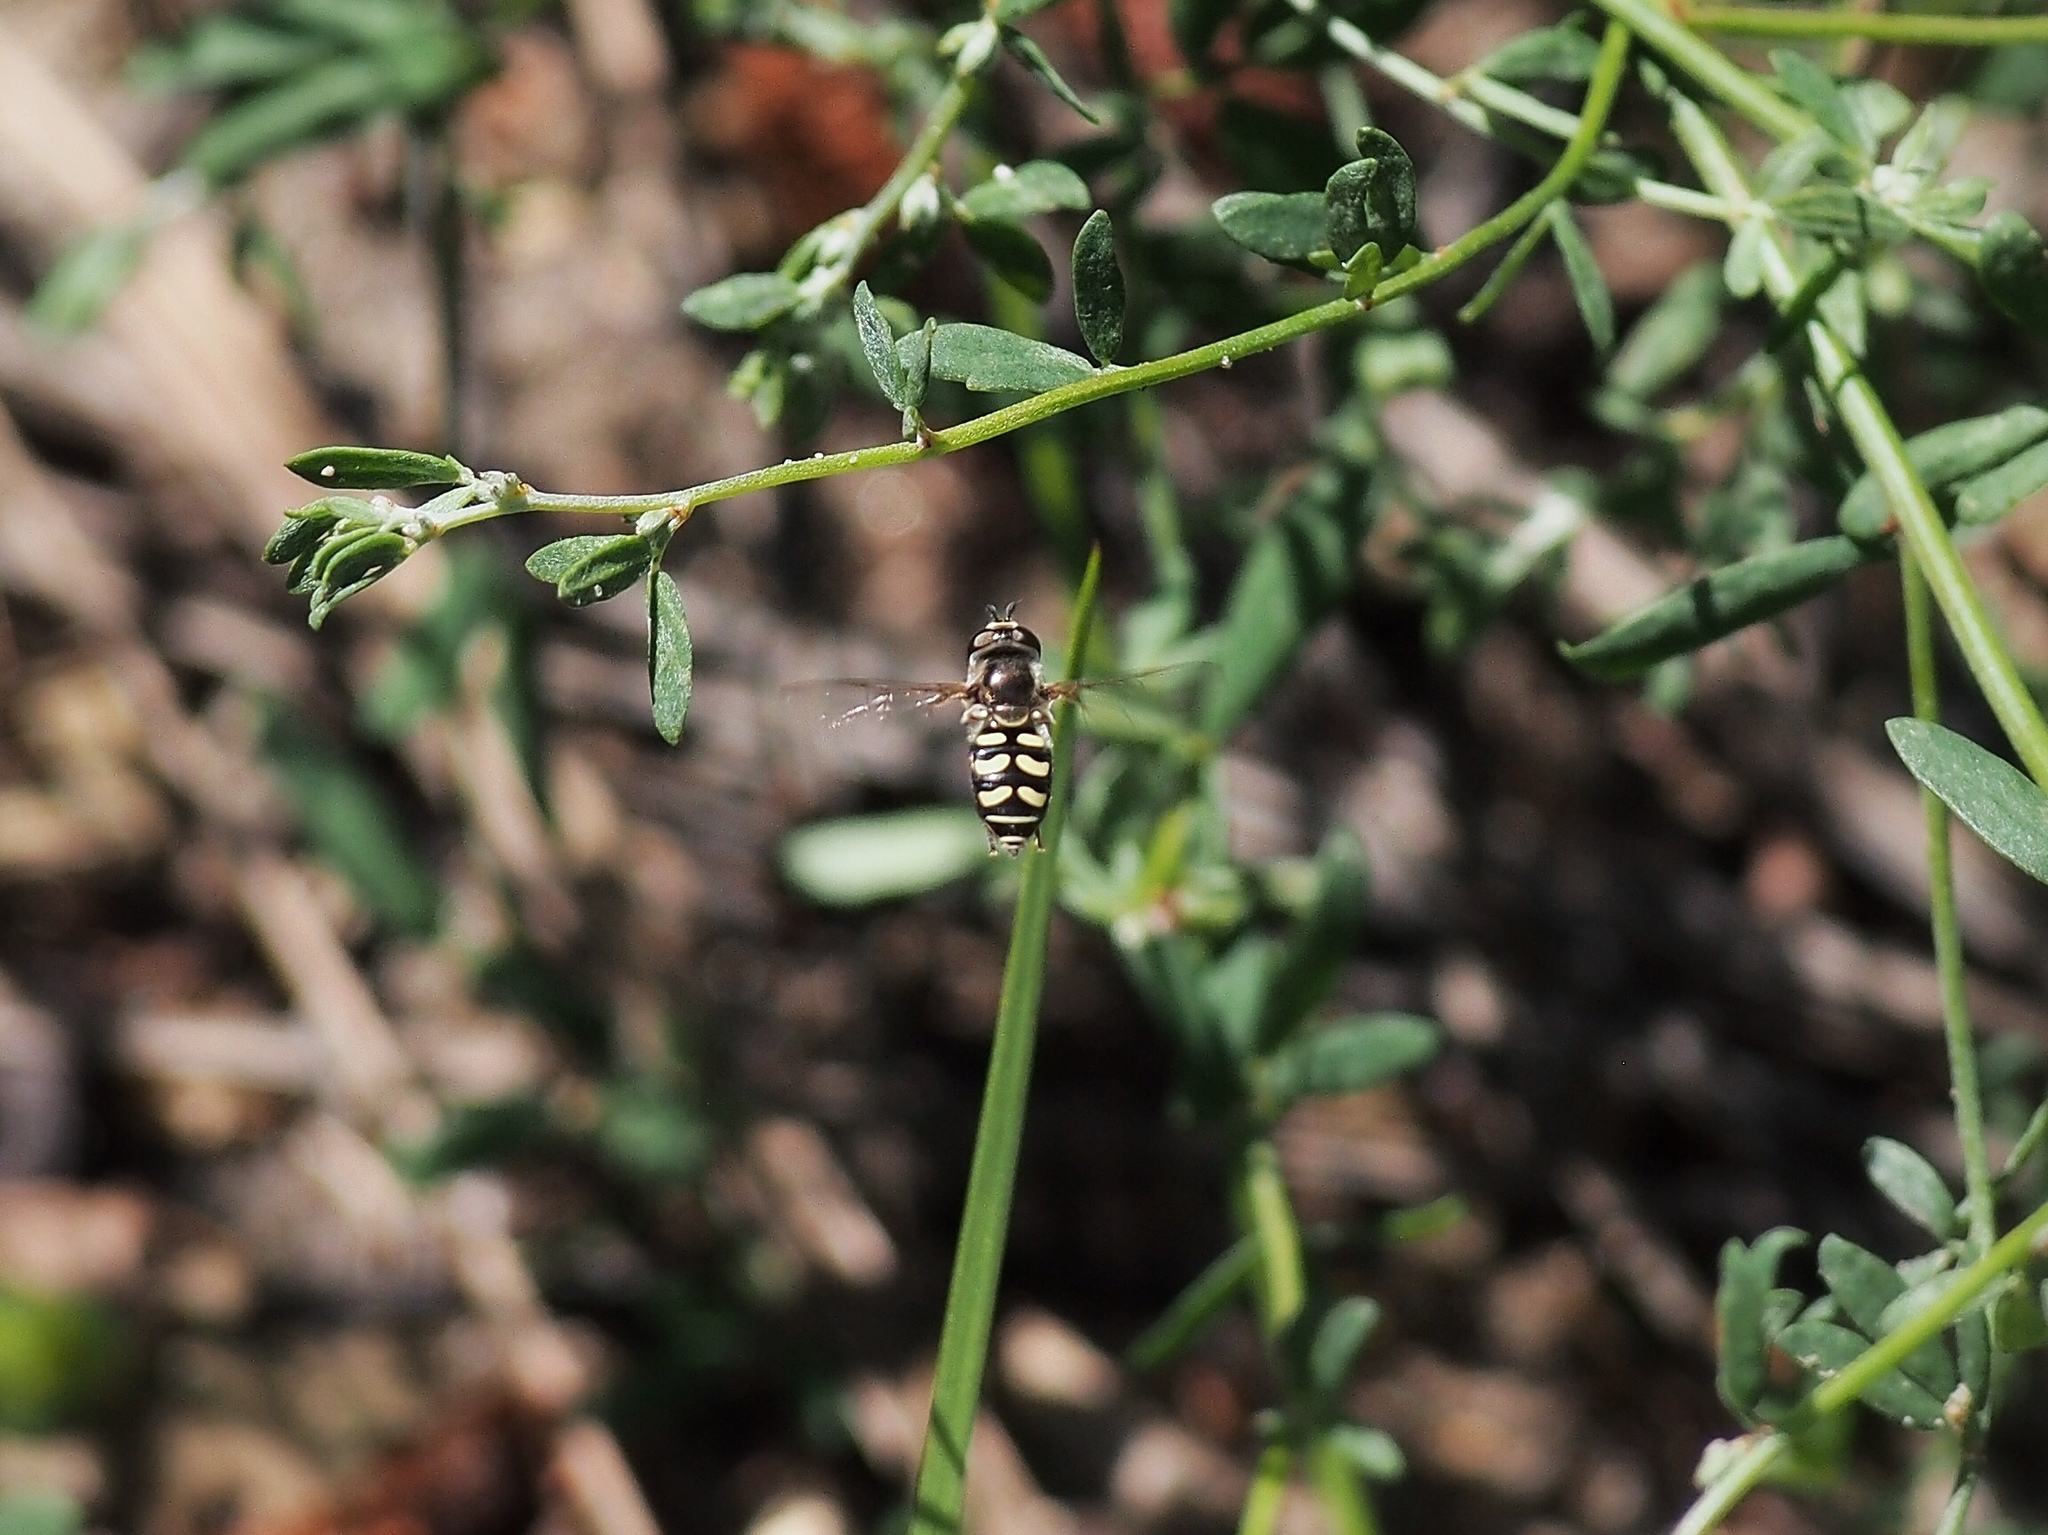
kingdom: Animalia
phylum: Arthropoda
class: Insecta
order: Diptera
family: Syrphidae
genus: Eupeodes
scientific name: Eupeodes volucris
